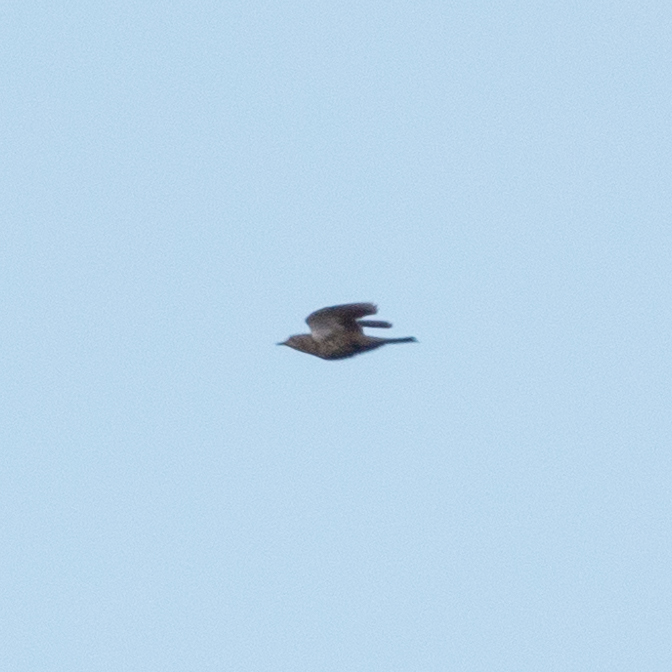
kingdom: Animalia
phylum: Chordata
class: Aves
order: Passeriformes
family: Turdidae
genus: Turdus
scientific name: Turdus viscivorus
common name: Mistle thrush
